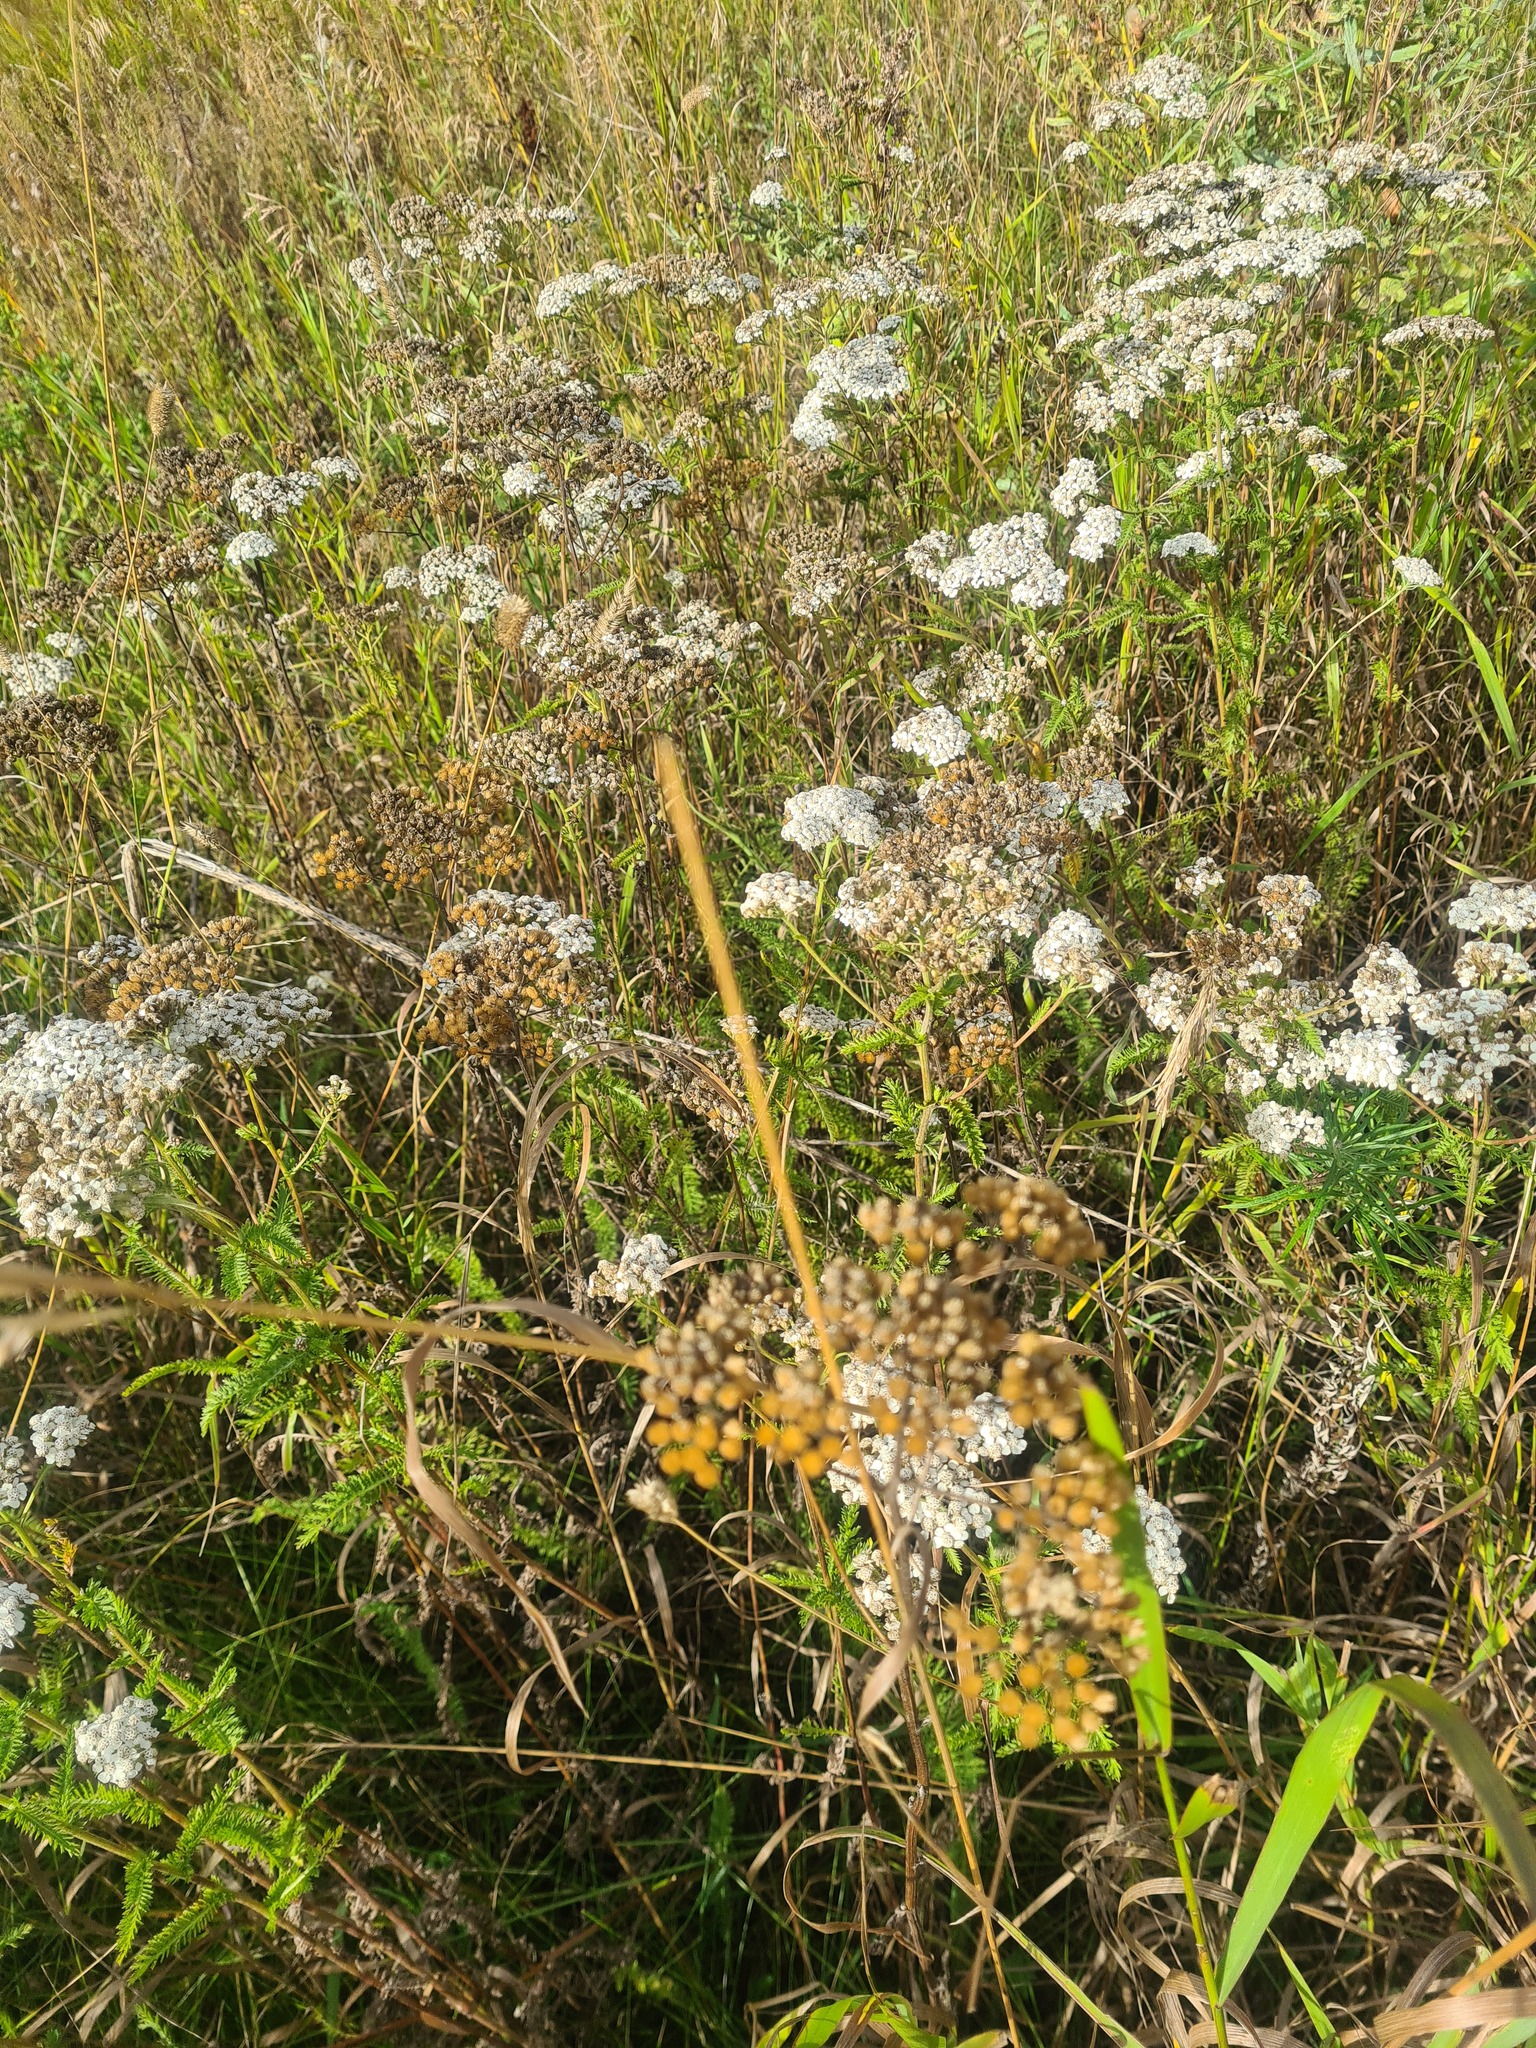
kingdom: Plantae
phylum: Tracheophyta
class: Magnoliopsida
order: Asterales
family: Asteraceae
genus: Achillea
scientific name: Achillea millefolium
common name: Yarrow
